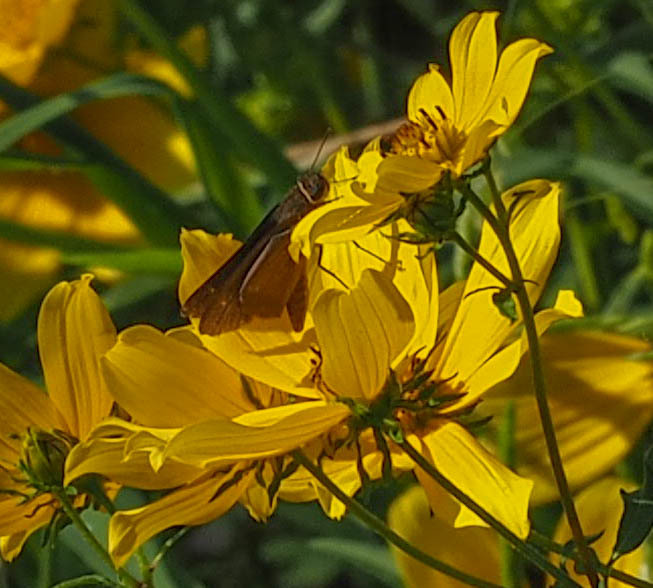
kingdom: Animalia
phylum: Arthropoda
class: Insecta
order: Lepidoptera
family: Hesperiidae
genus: Panoquina
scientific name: Panoquina ocola
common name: Ocola skipper
